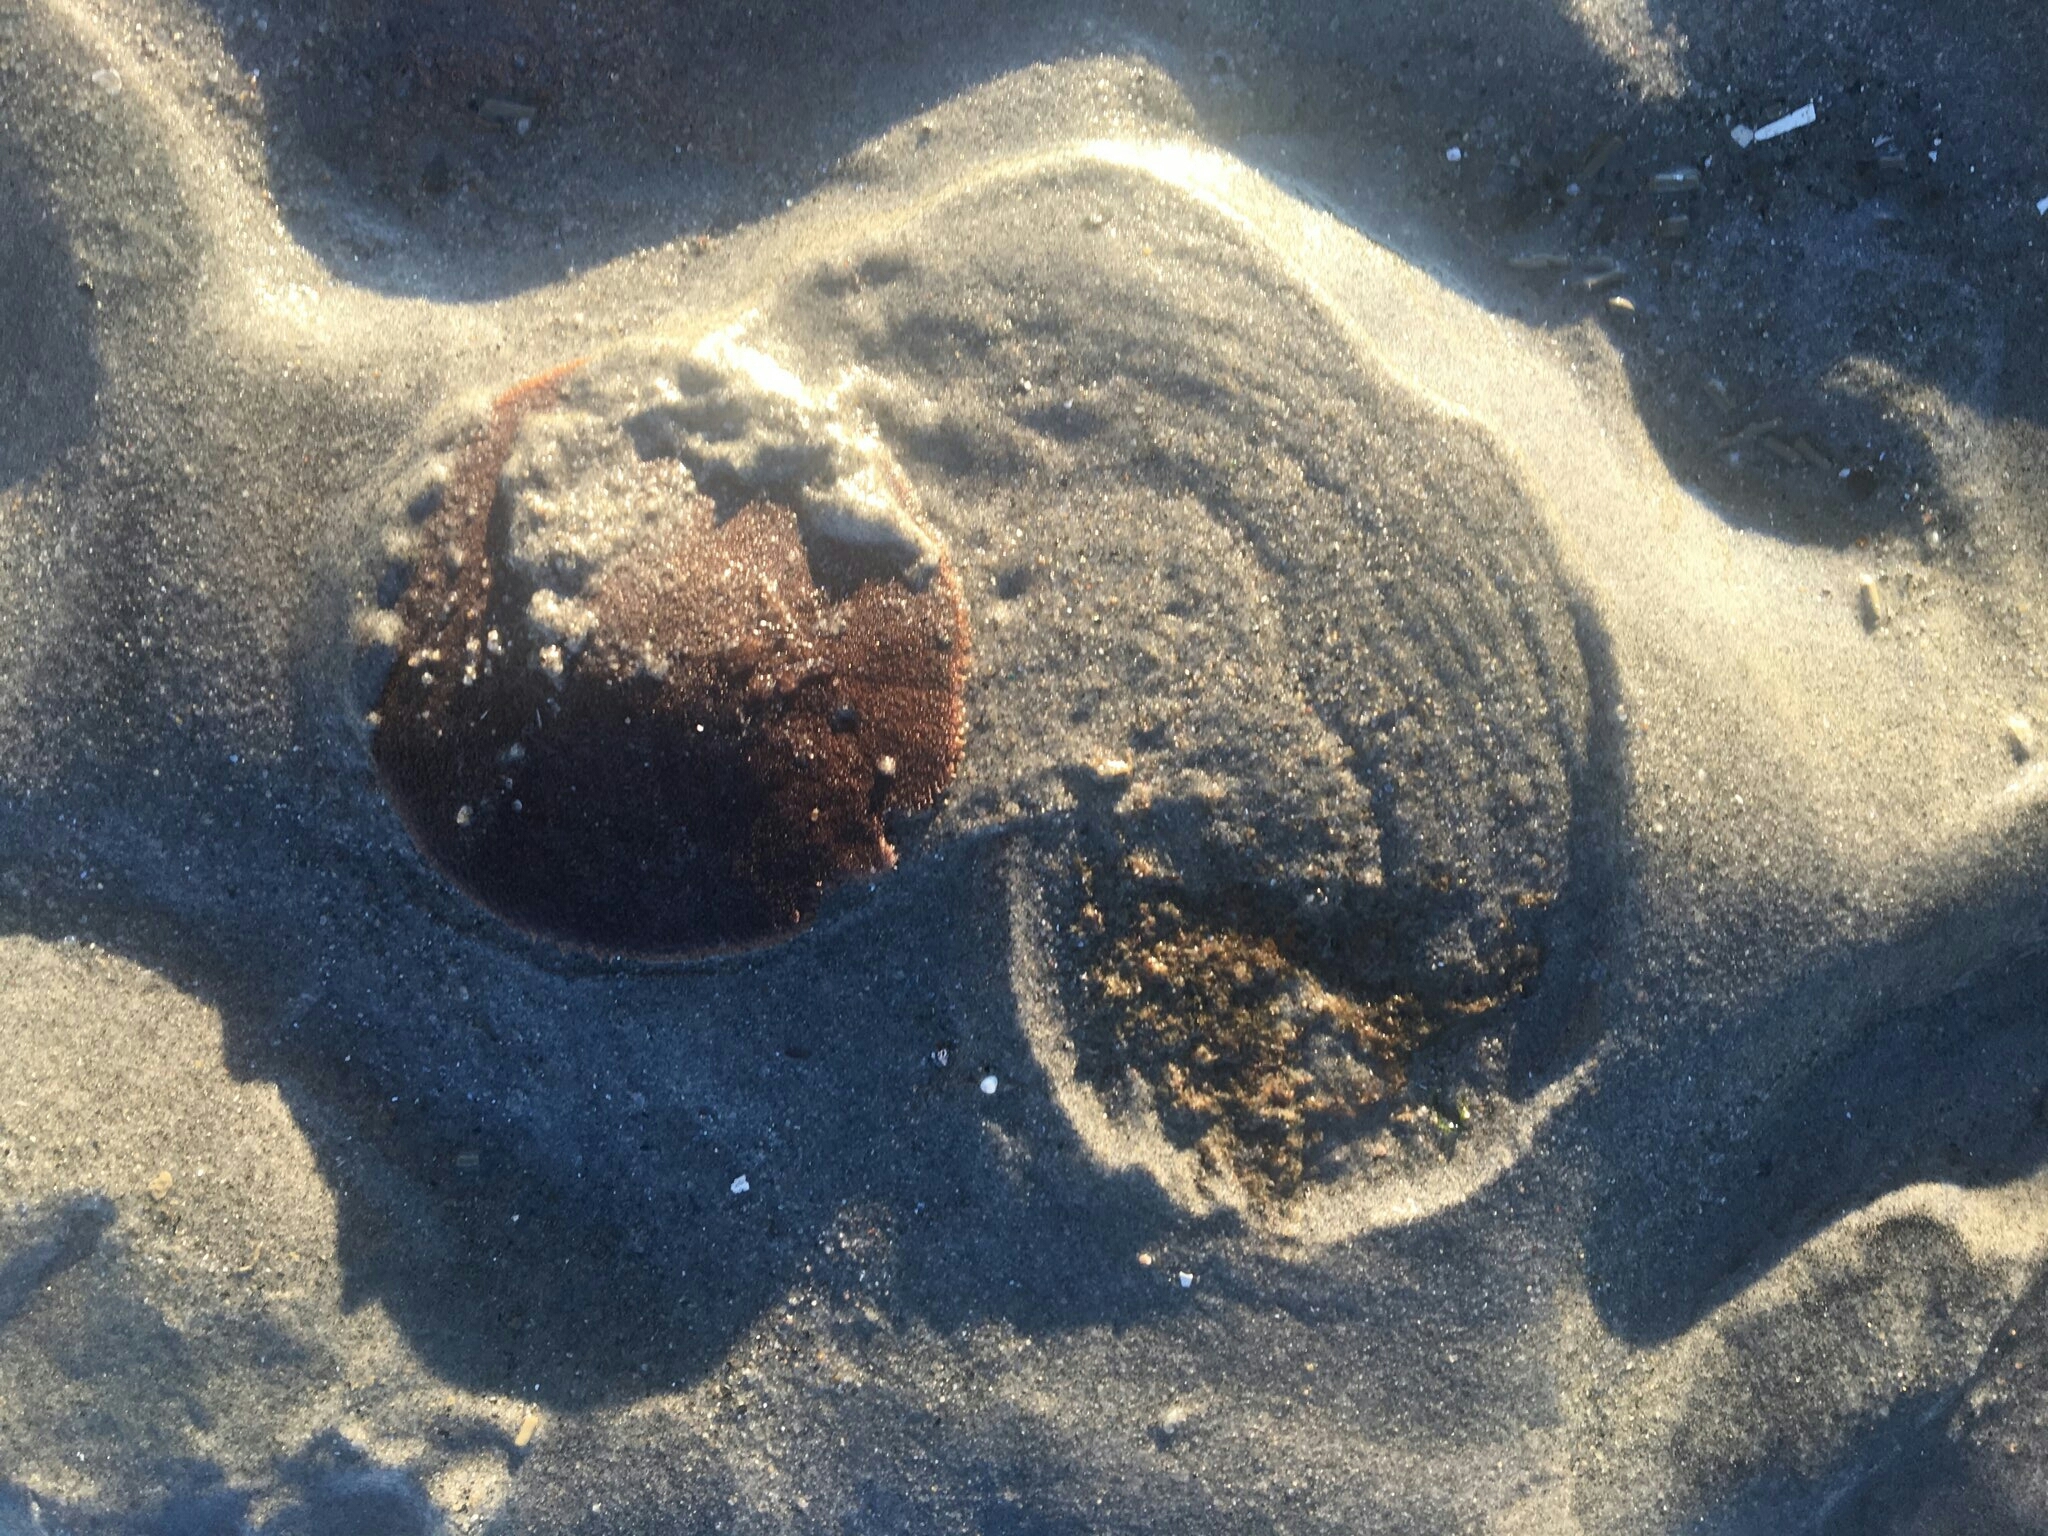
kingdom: Animalia
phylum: Echinodermata
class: Echinoidea
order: Echinolampadacea
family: Echinarachniidae
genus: Echinarachnius
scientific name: Echinarachnius parma
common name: Common sand dollar
